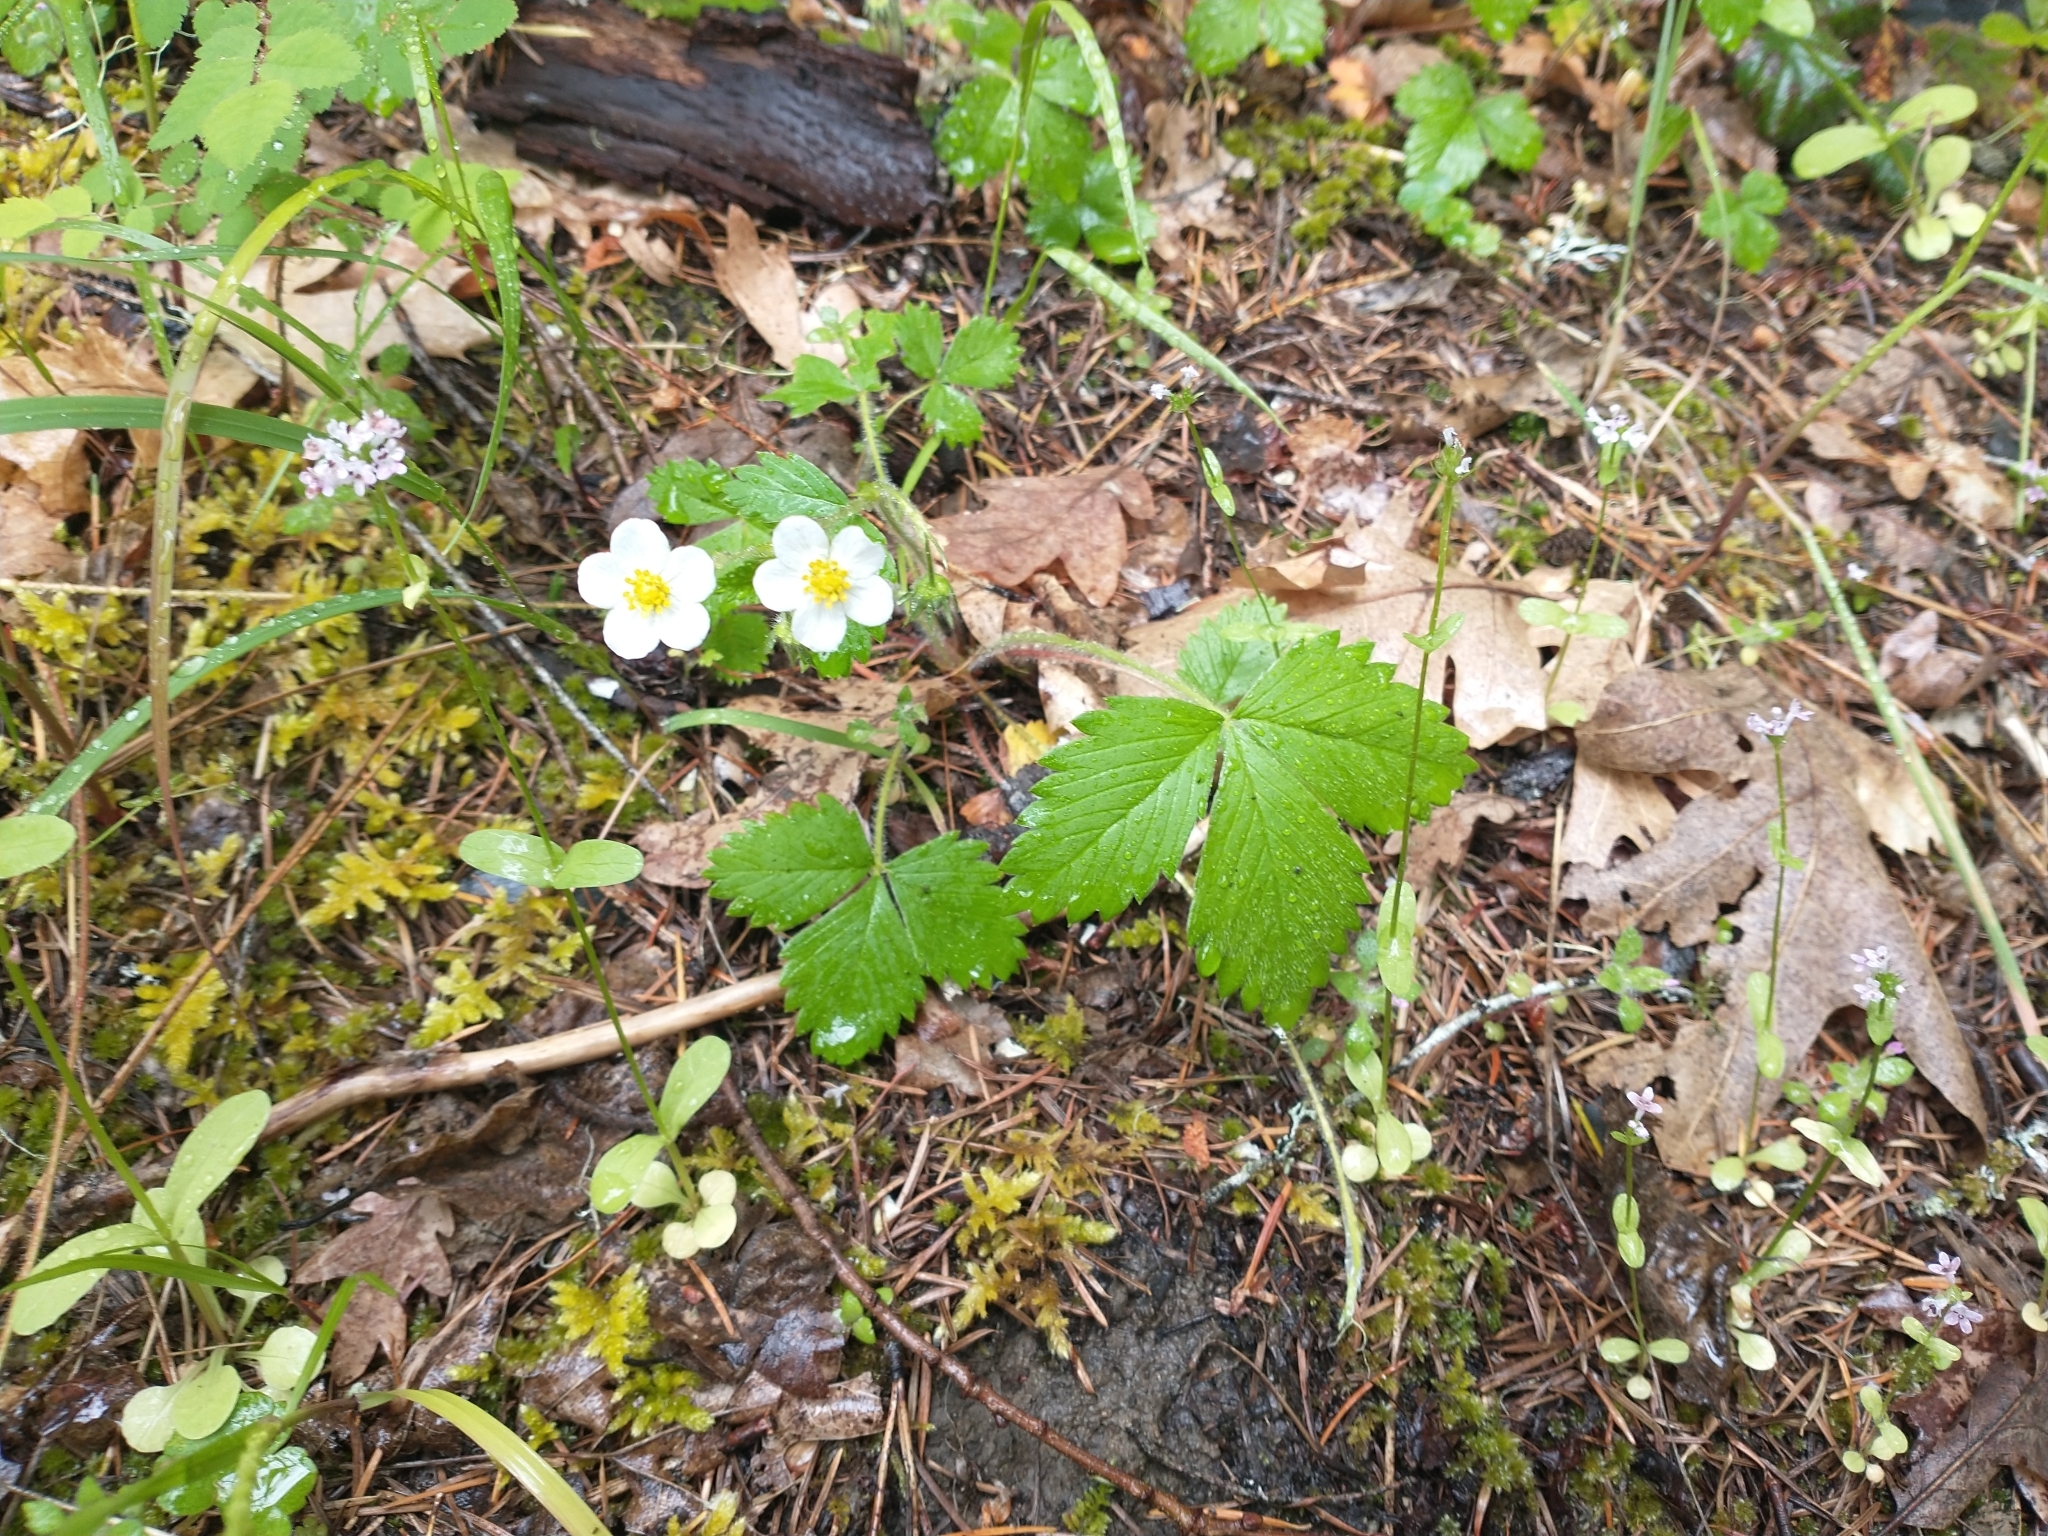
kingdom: Plantae
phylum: Tracheophyta
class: Magnoliopsida
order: Rosales
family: Rosaceae
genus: Fragaria
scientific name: Fragaria vesca
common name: Wild strawberry
